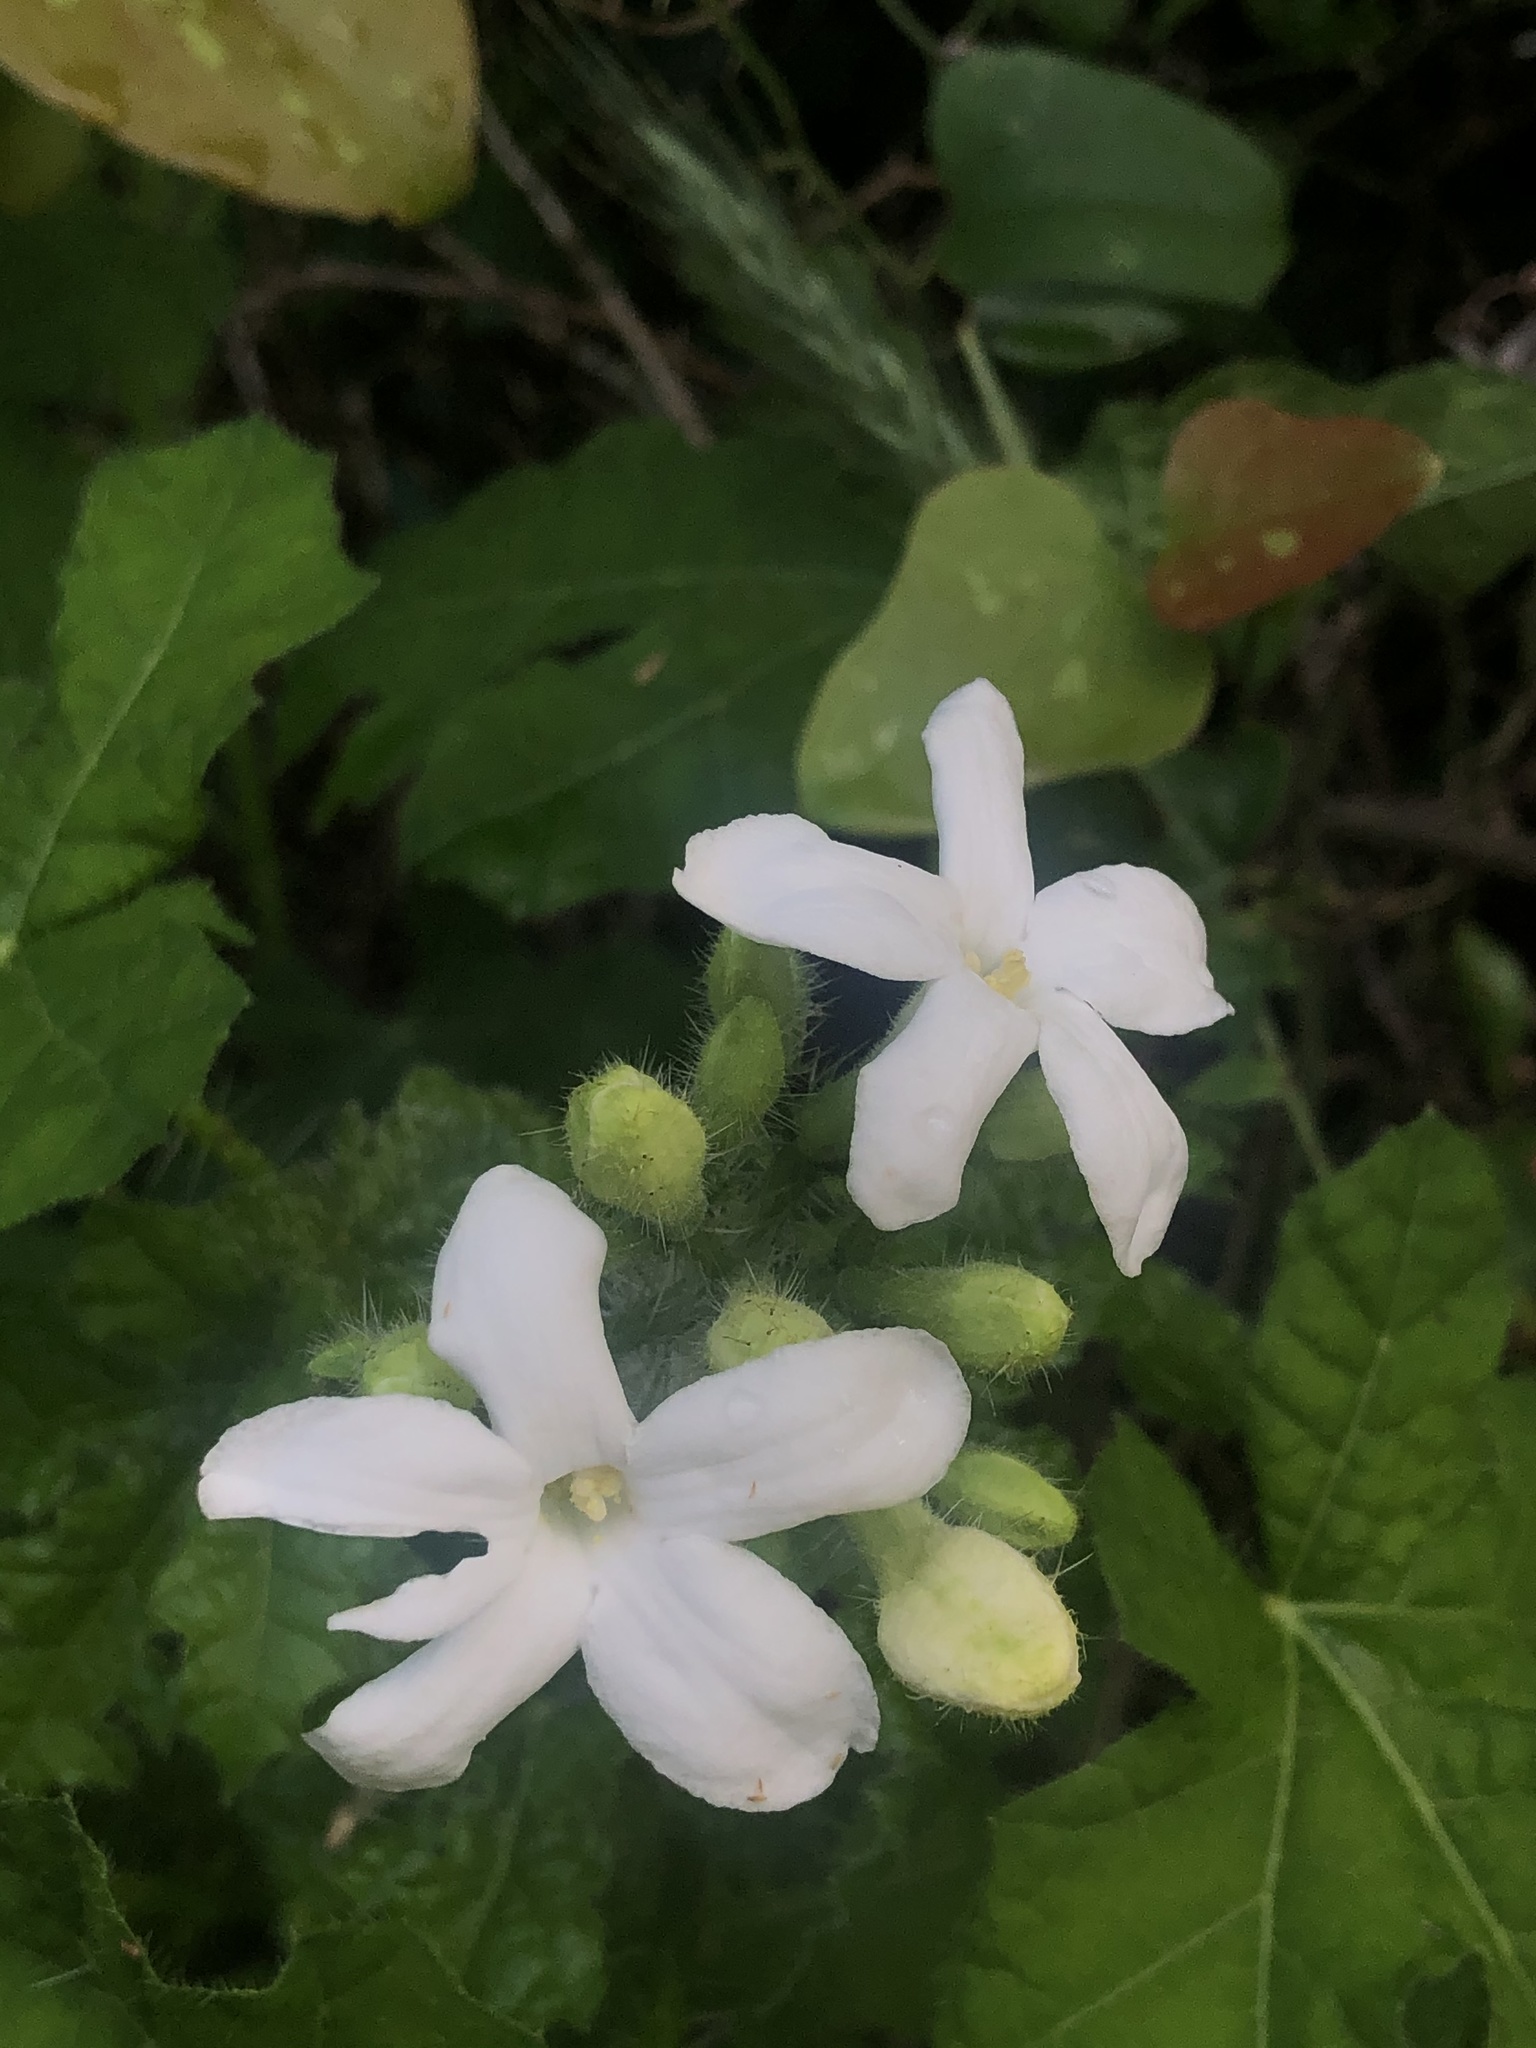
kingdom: Plantae
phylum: Tracheophyta
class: Magnoliopsida
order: Malpighiales
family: Euphorbiaceae
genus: Cnidoscolus
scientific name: Cnidoscolus texanus
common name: Texas bull-nettle
